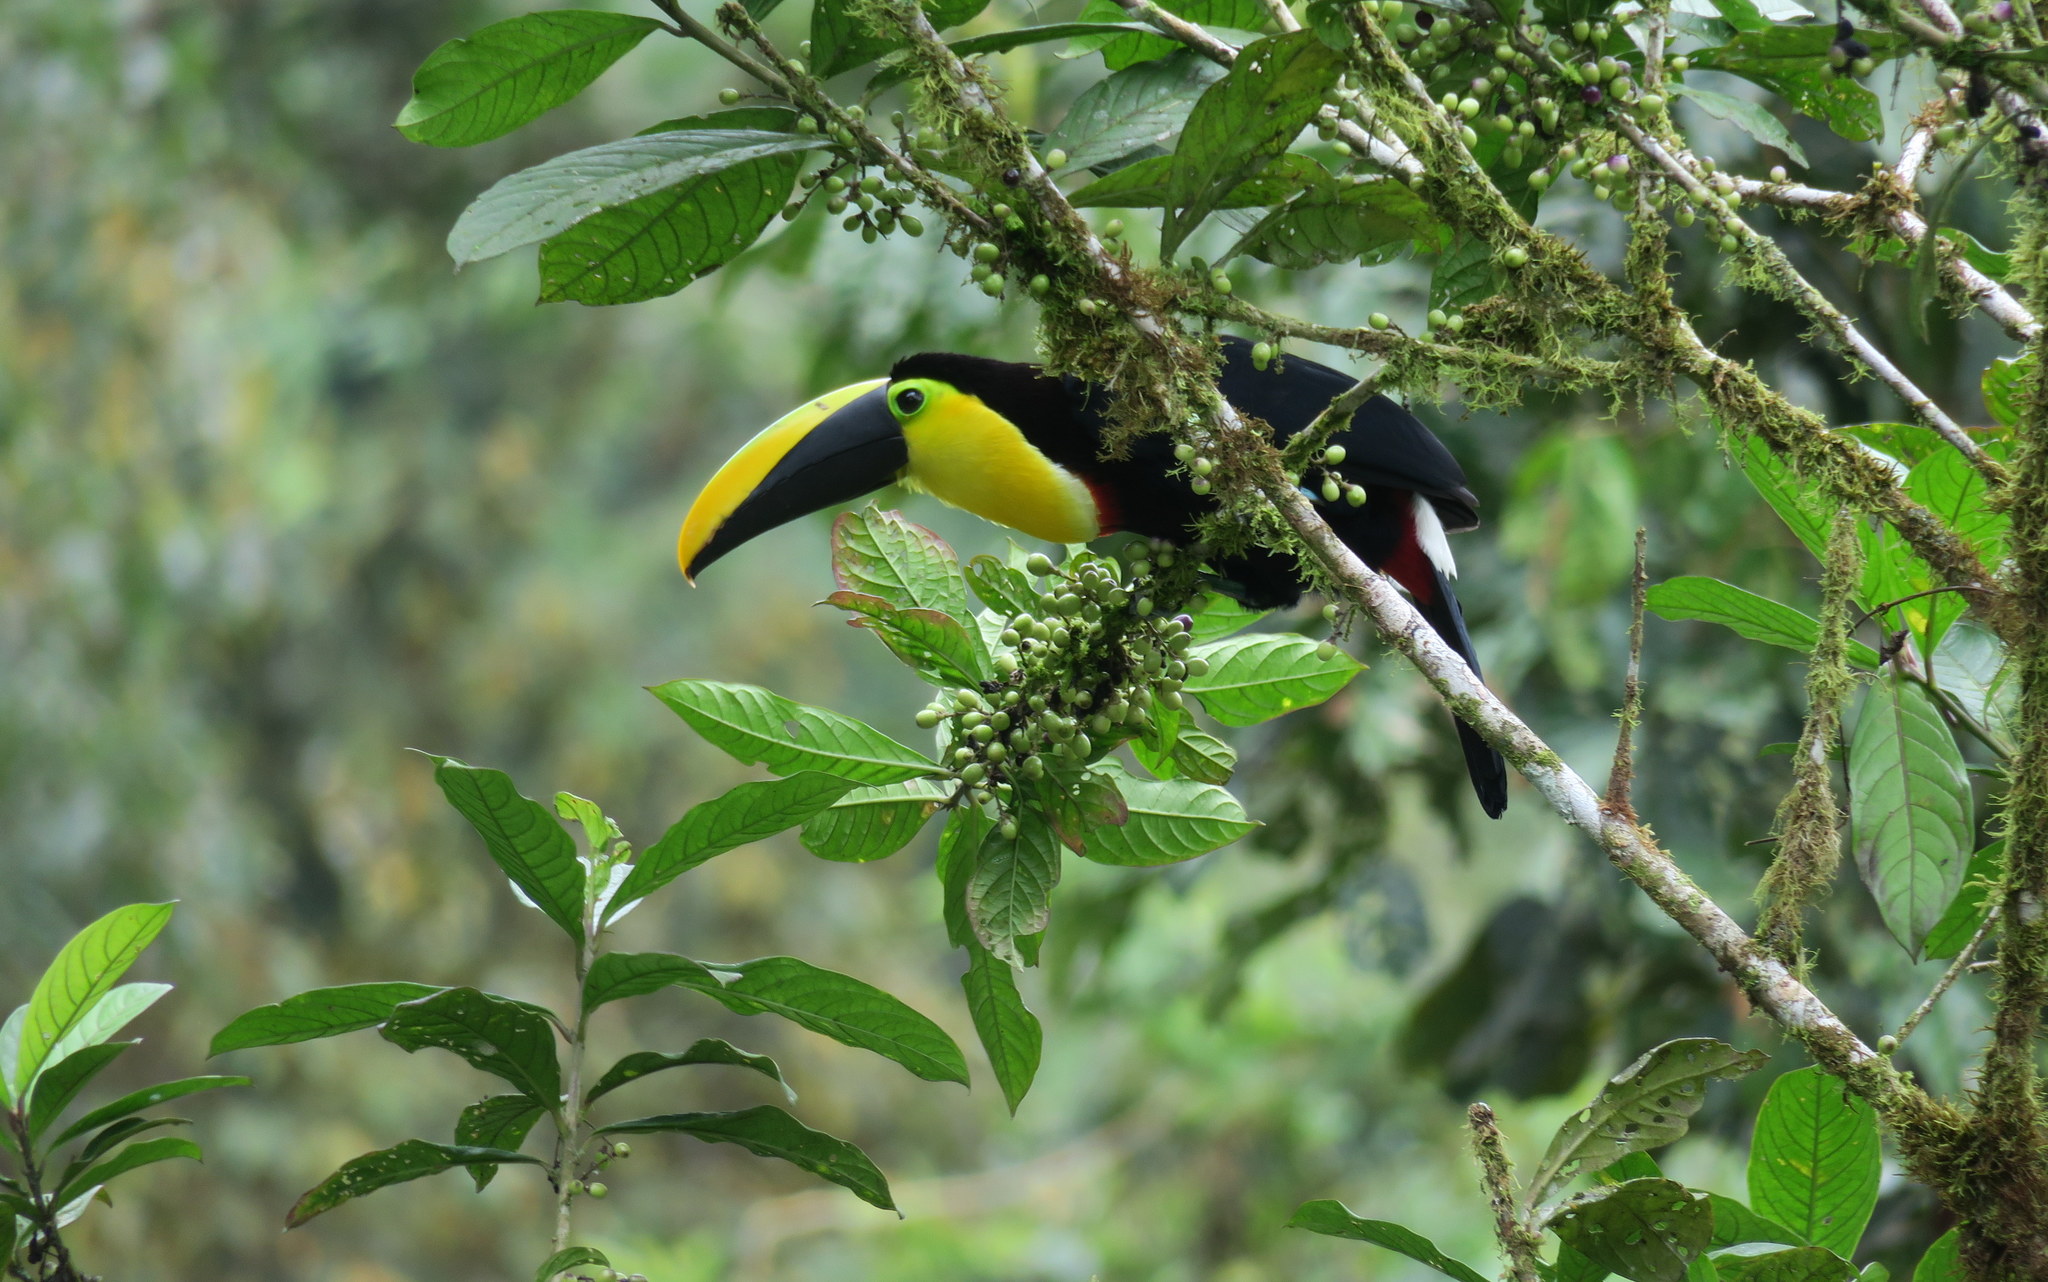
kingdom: Animalia
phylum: Chordata
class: Aves
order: Piciformes
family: Ramphastidae
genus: Ramphastos
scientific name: Ramphastos brevis
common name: Choco toucan
